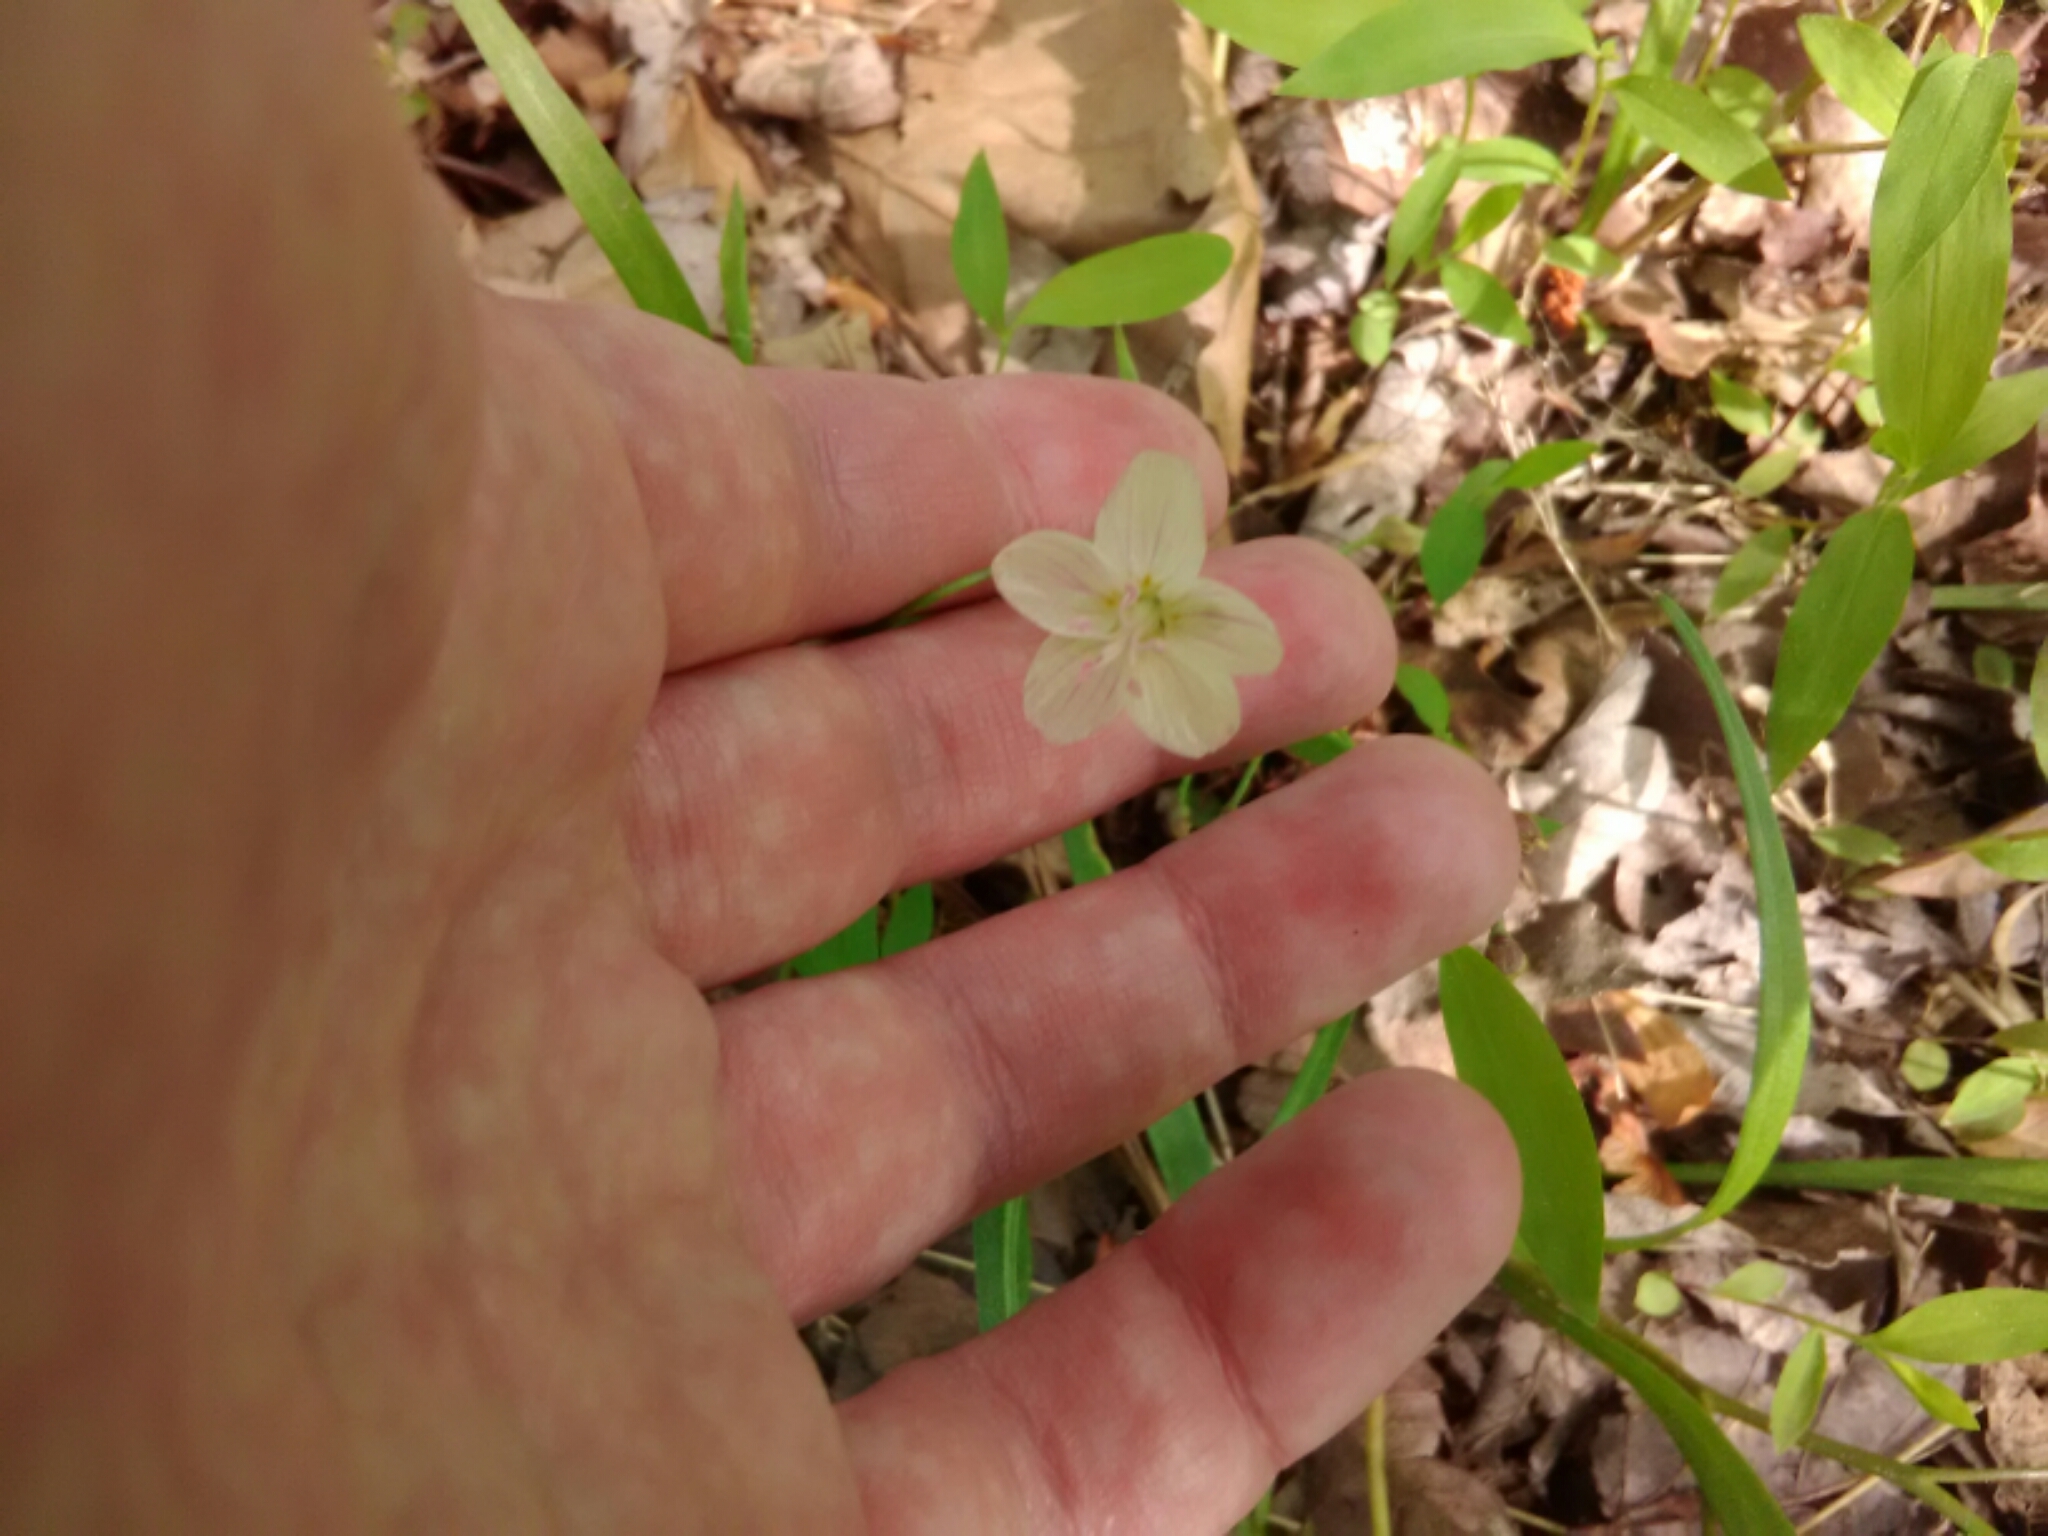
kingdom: Plantae
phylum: Tracheophyta
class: Magnoliopsida
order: Caryophyllales
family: Montiaceae
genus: Claytonia
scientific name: Claytonia virginica
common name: Virginia springbeauty
